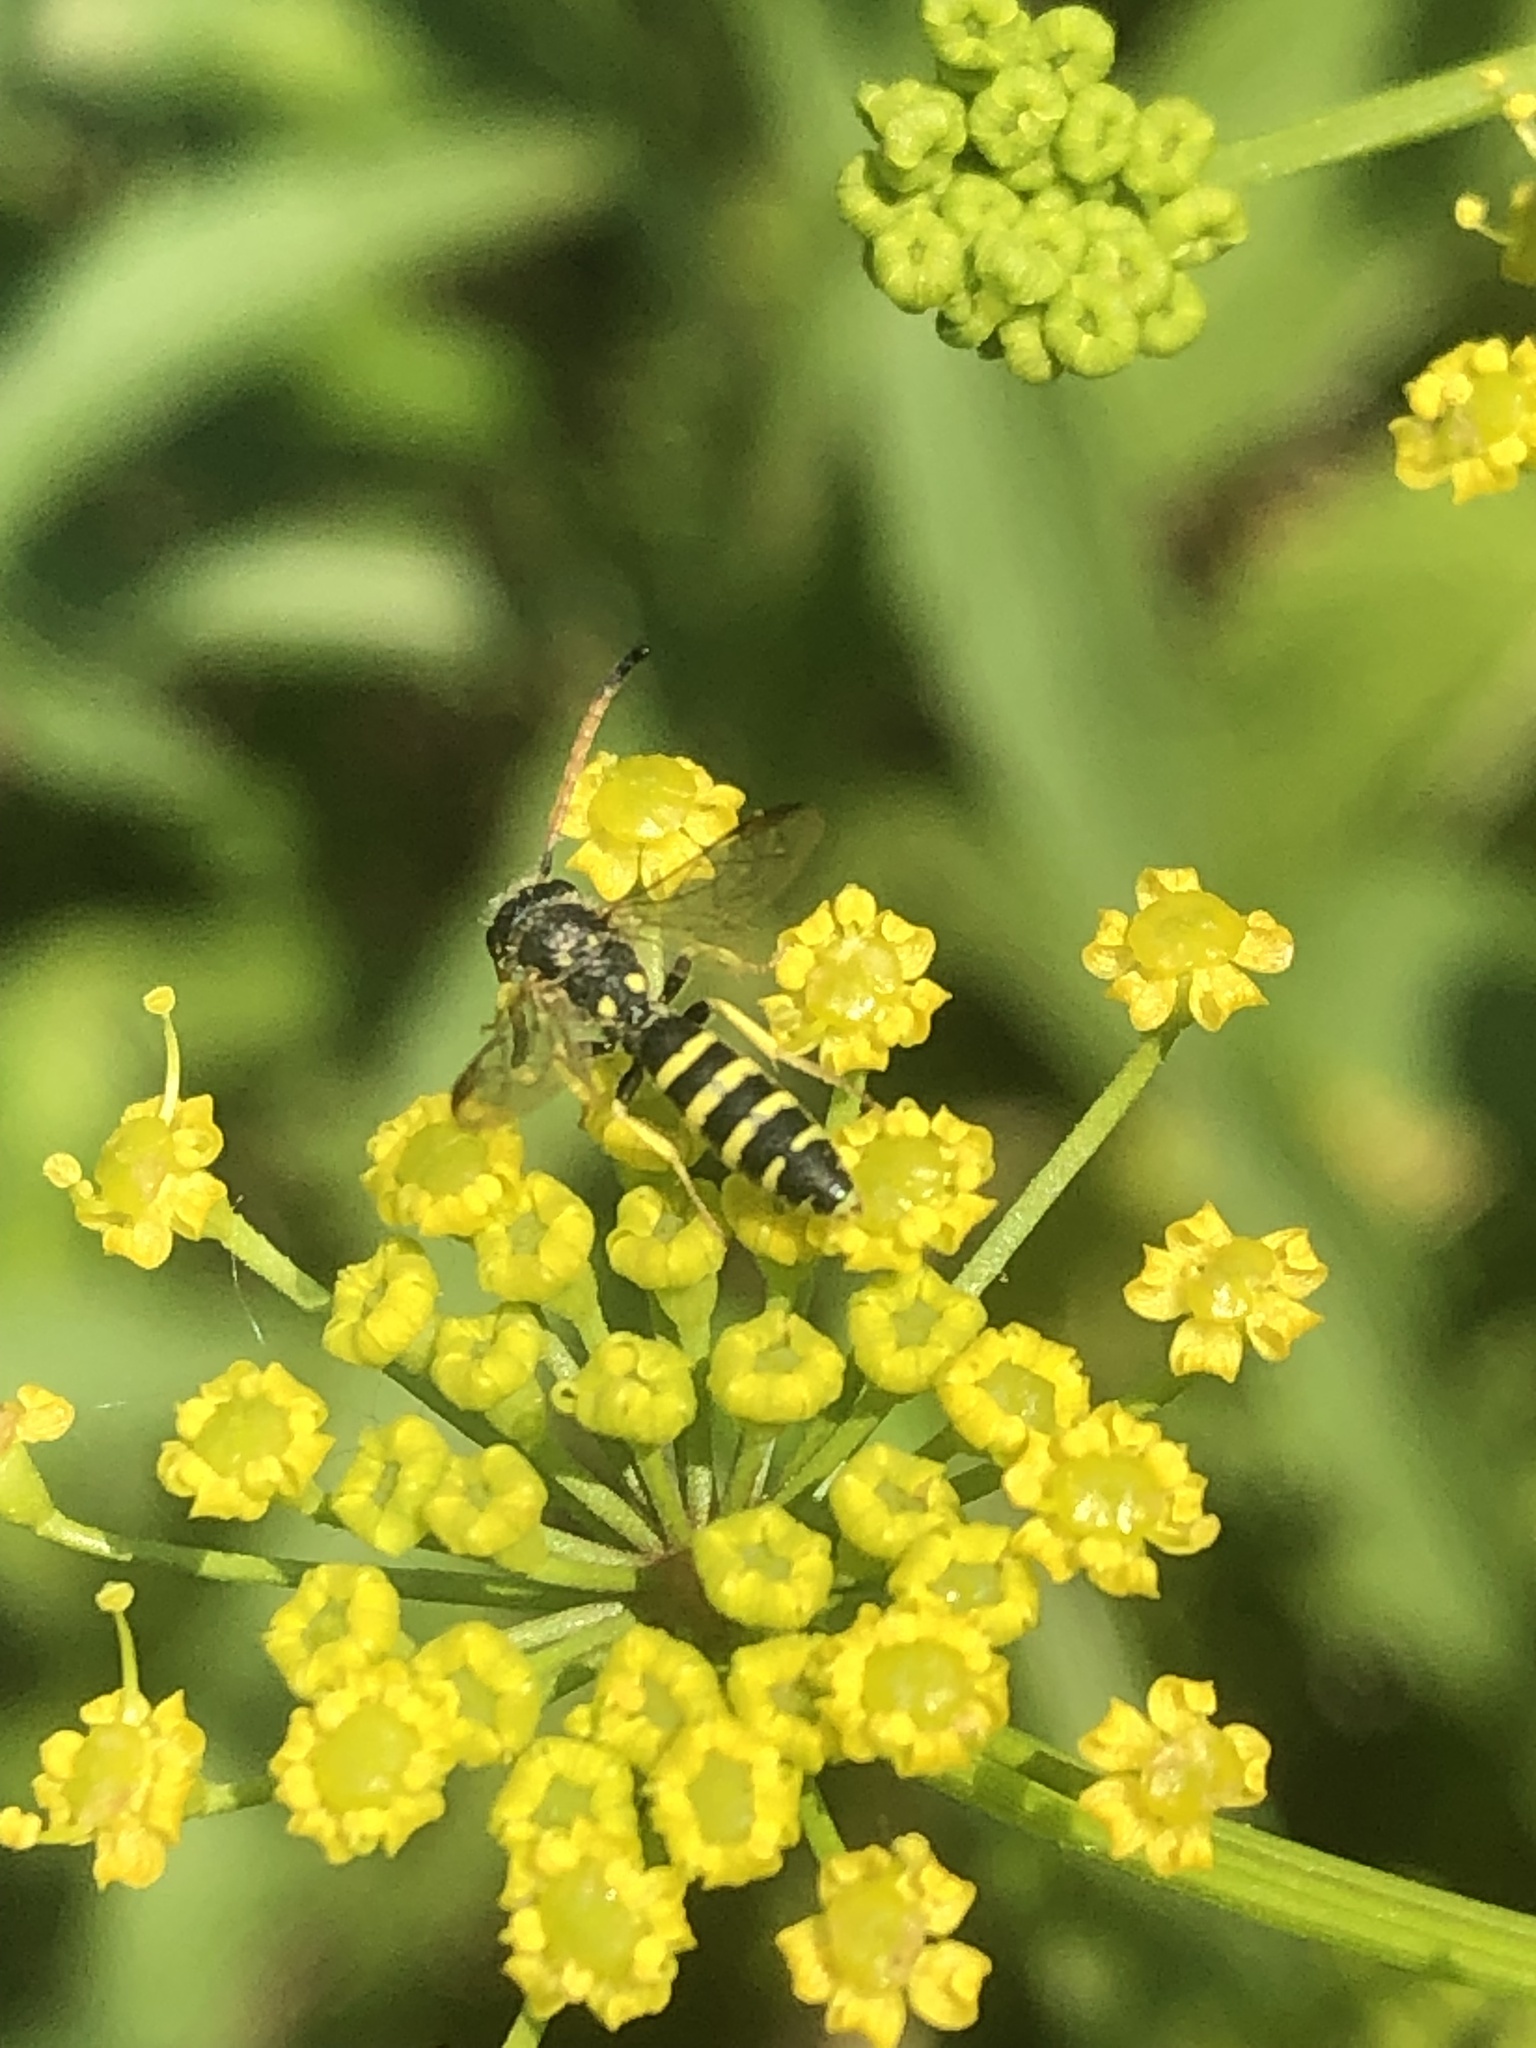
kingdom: Animalia
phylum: Arthropoda
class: Insecta
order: Hymenoptera
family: Sapygidae
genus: Sapyga
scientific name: Sapyga centrata
